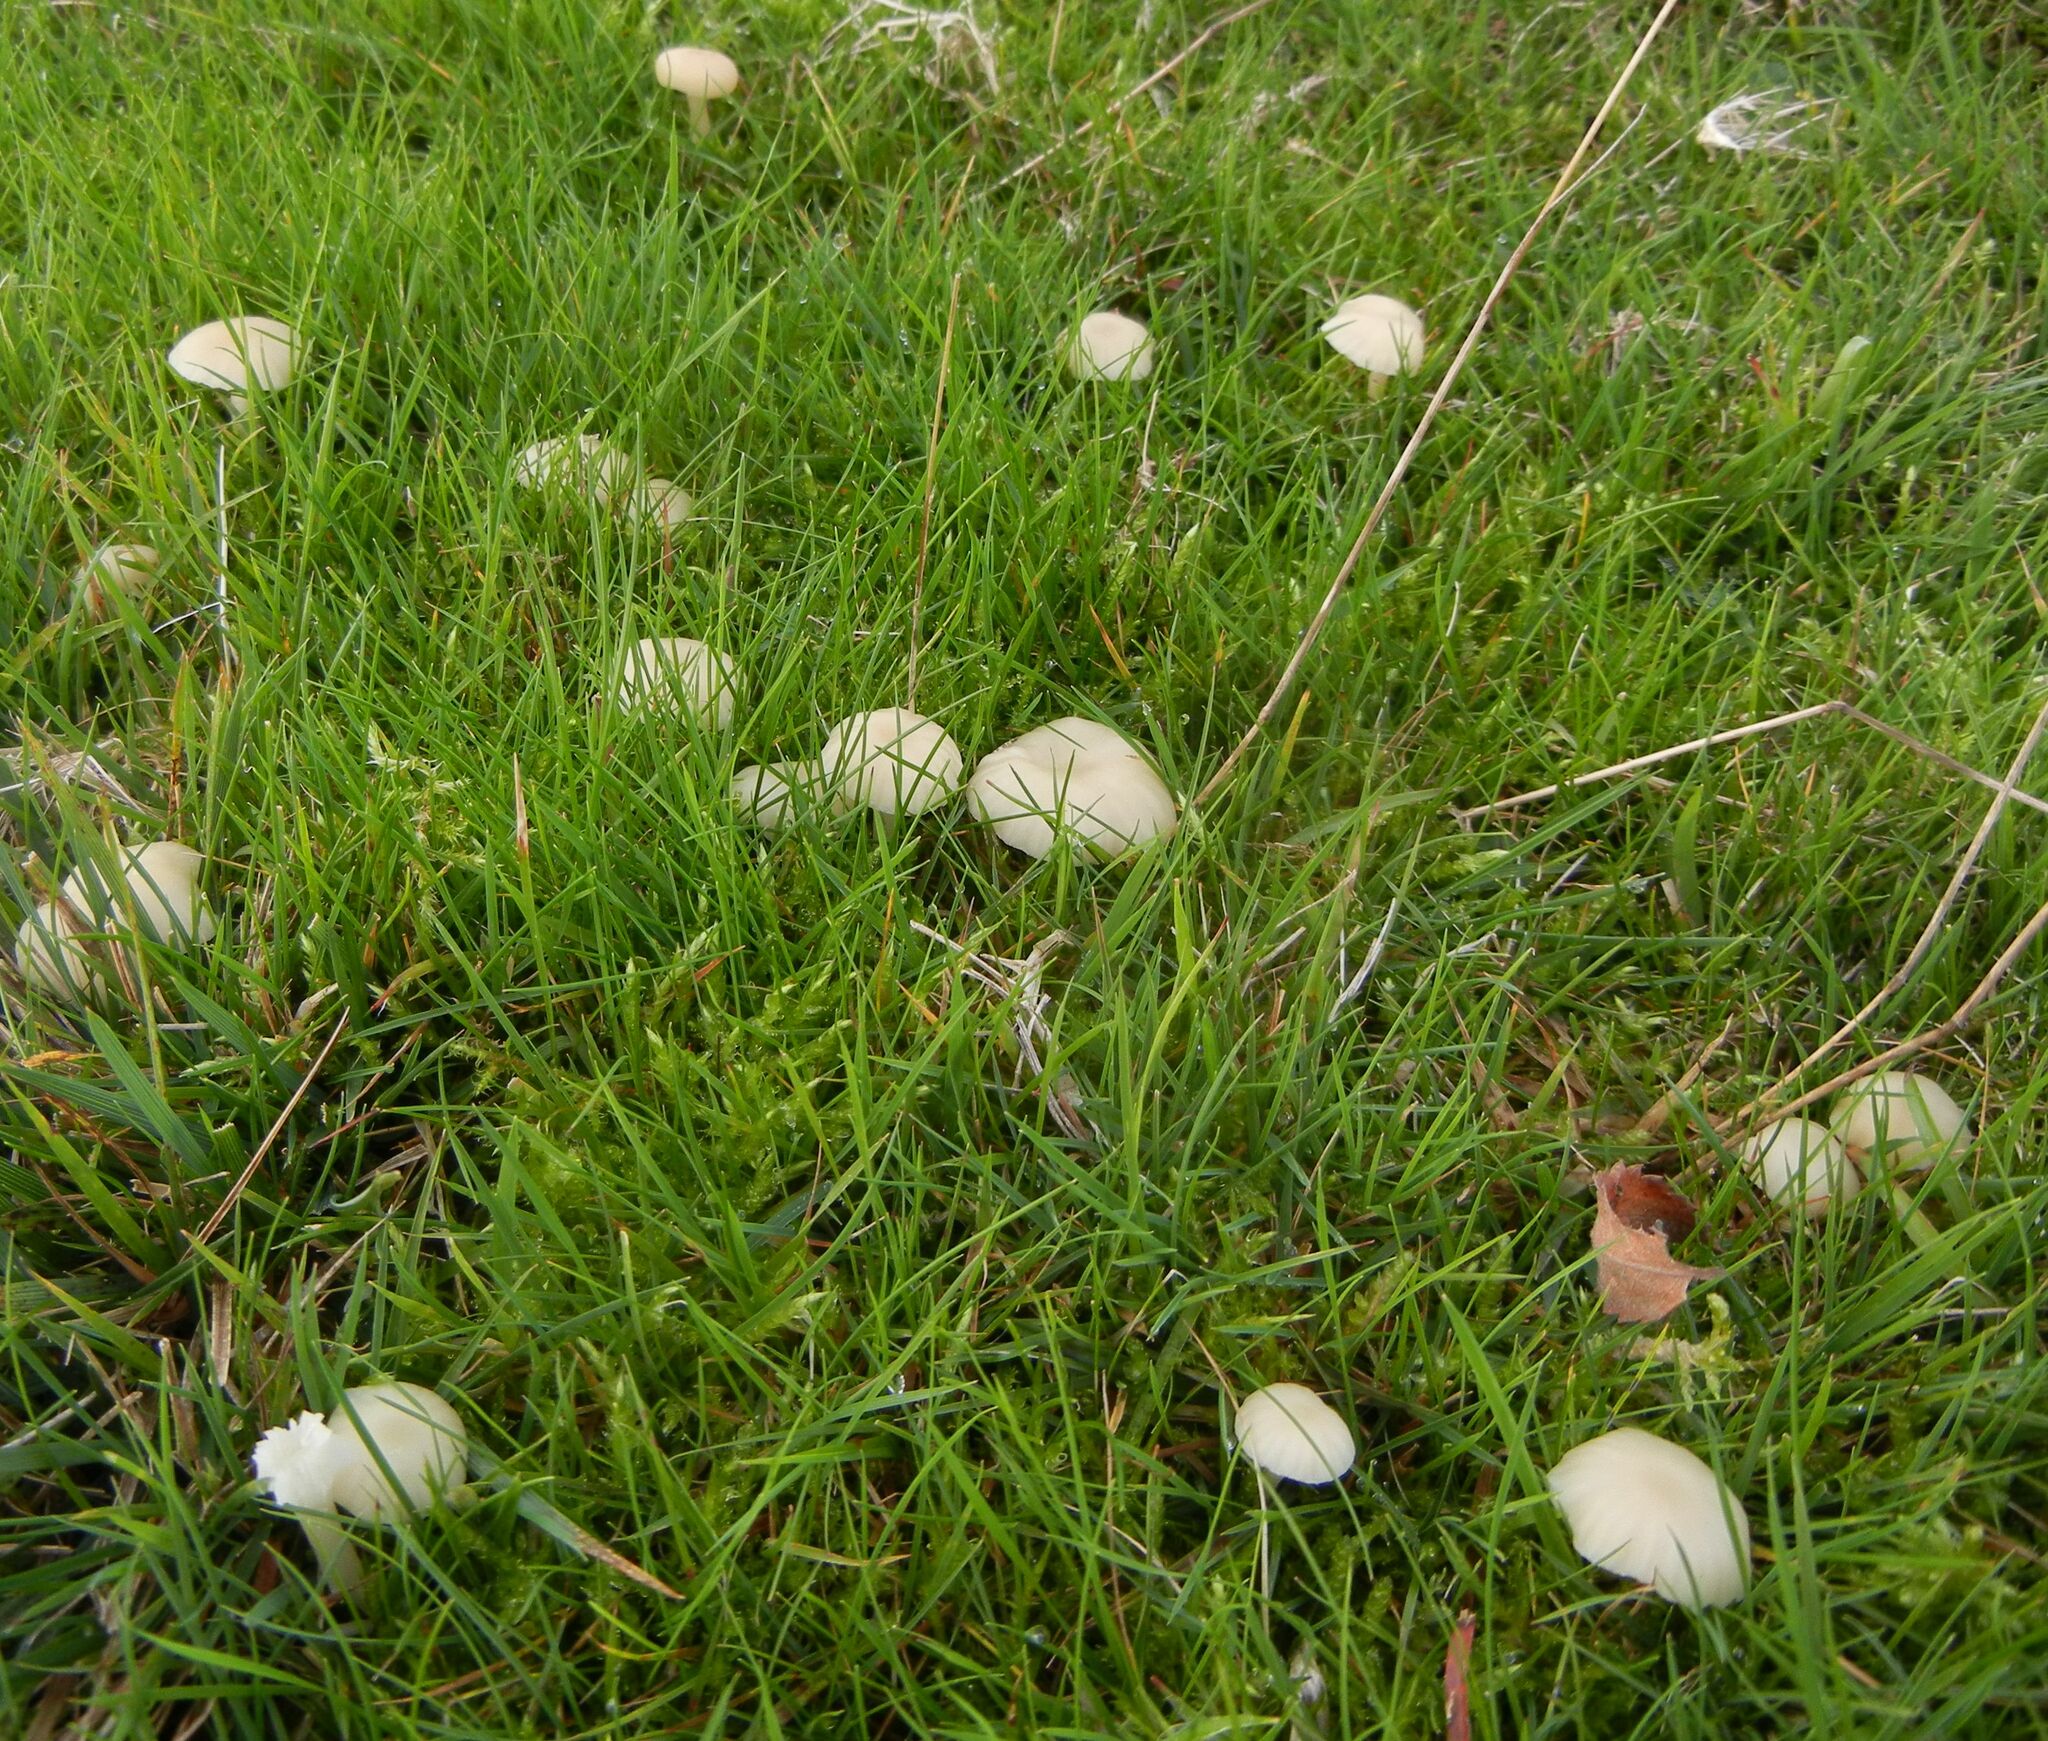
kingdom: Fungi
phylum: Basidiomycota
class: Agaricomycetes
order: Agaricales
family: Hygrophoraceae
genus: Cuphophyllus
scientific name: Cuphophyllus virgineus
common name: Snowy waxcap
